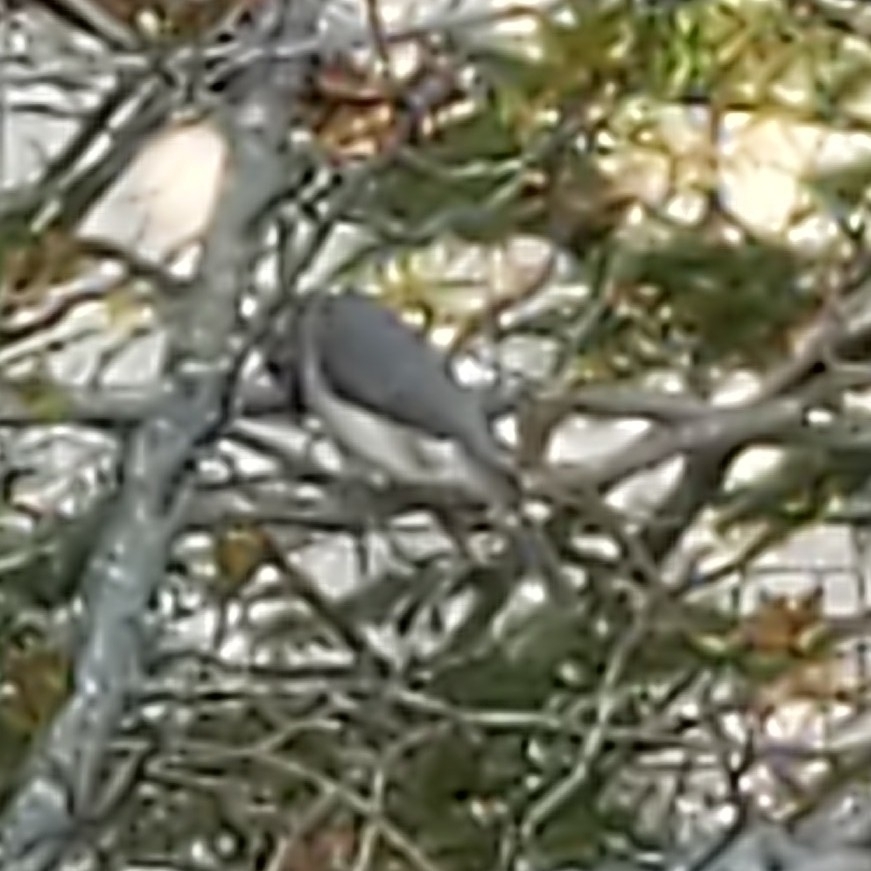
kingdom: Animalia
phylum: Chordata
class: Aves
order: Passeriformes
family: Paridae
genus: Baeolophus
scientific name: Baeolophus bicolor
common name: Tufted titmouse
